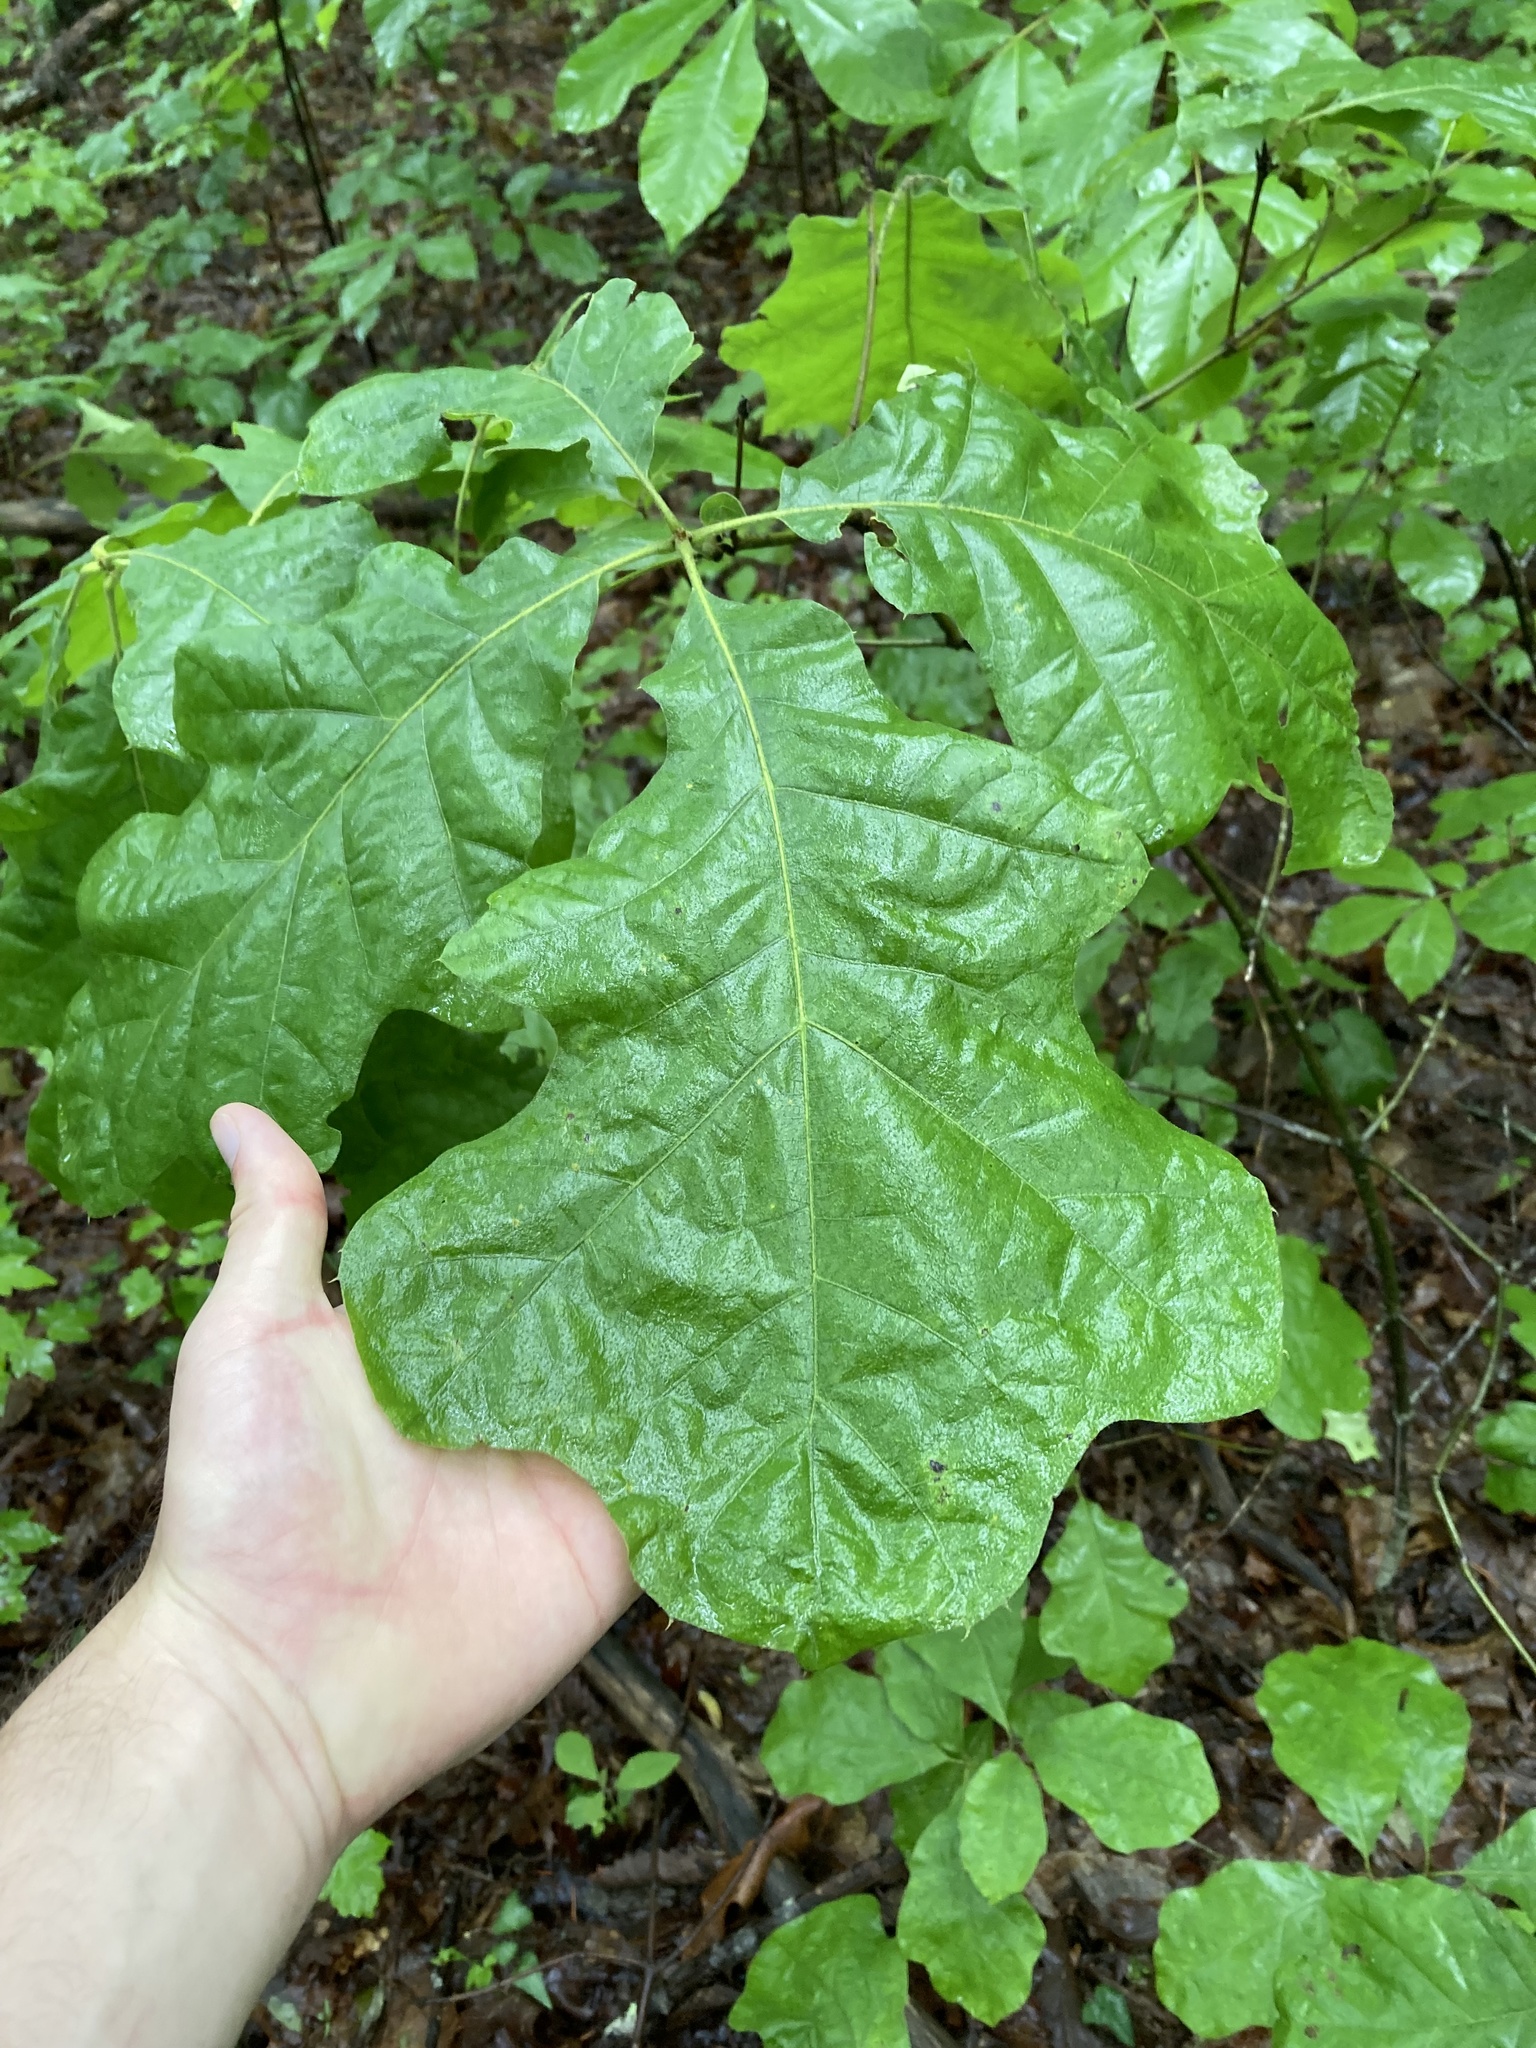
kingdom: Plantae
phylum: Tracheophyta
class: Magnoliopsida
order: Fagales
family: Fagaceae
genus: Quercus
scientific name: Quercus velutina
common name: Black oak
